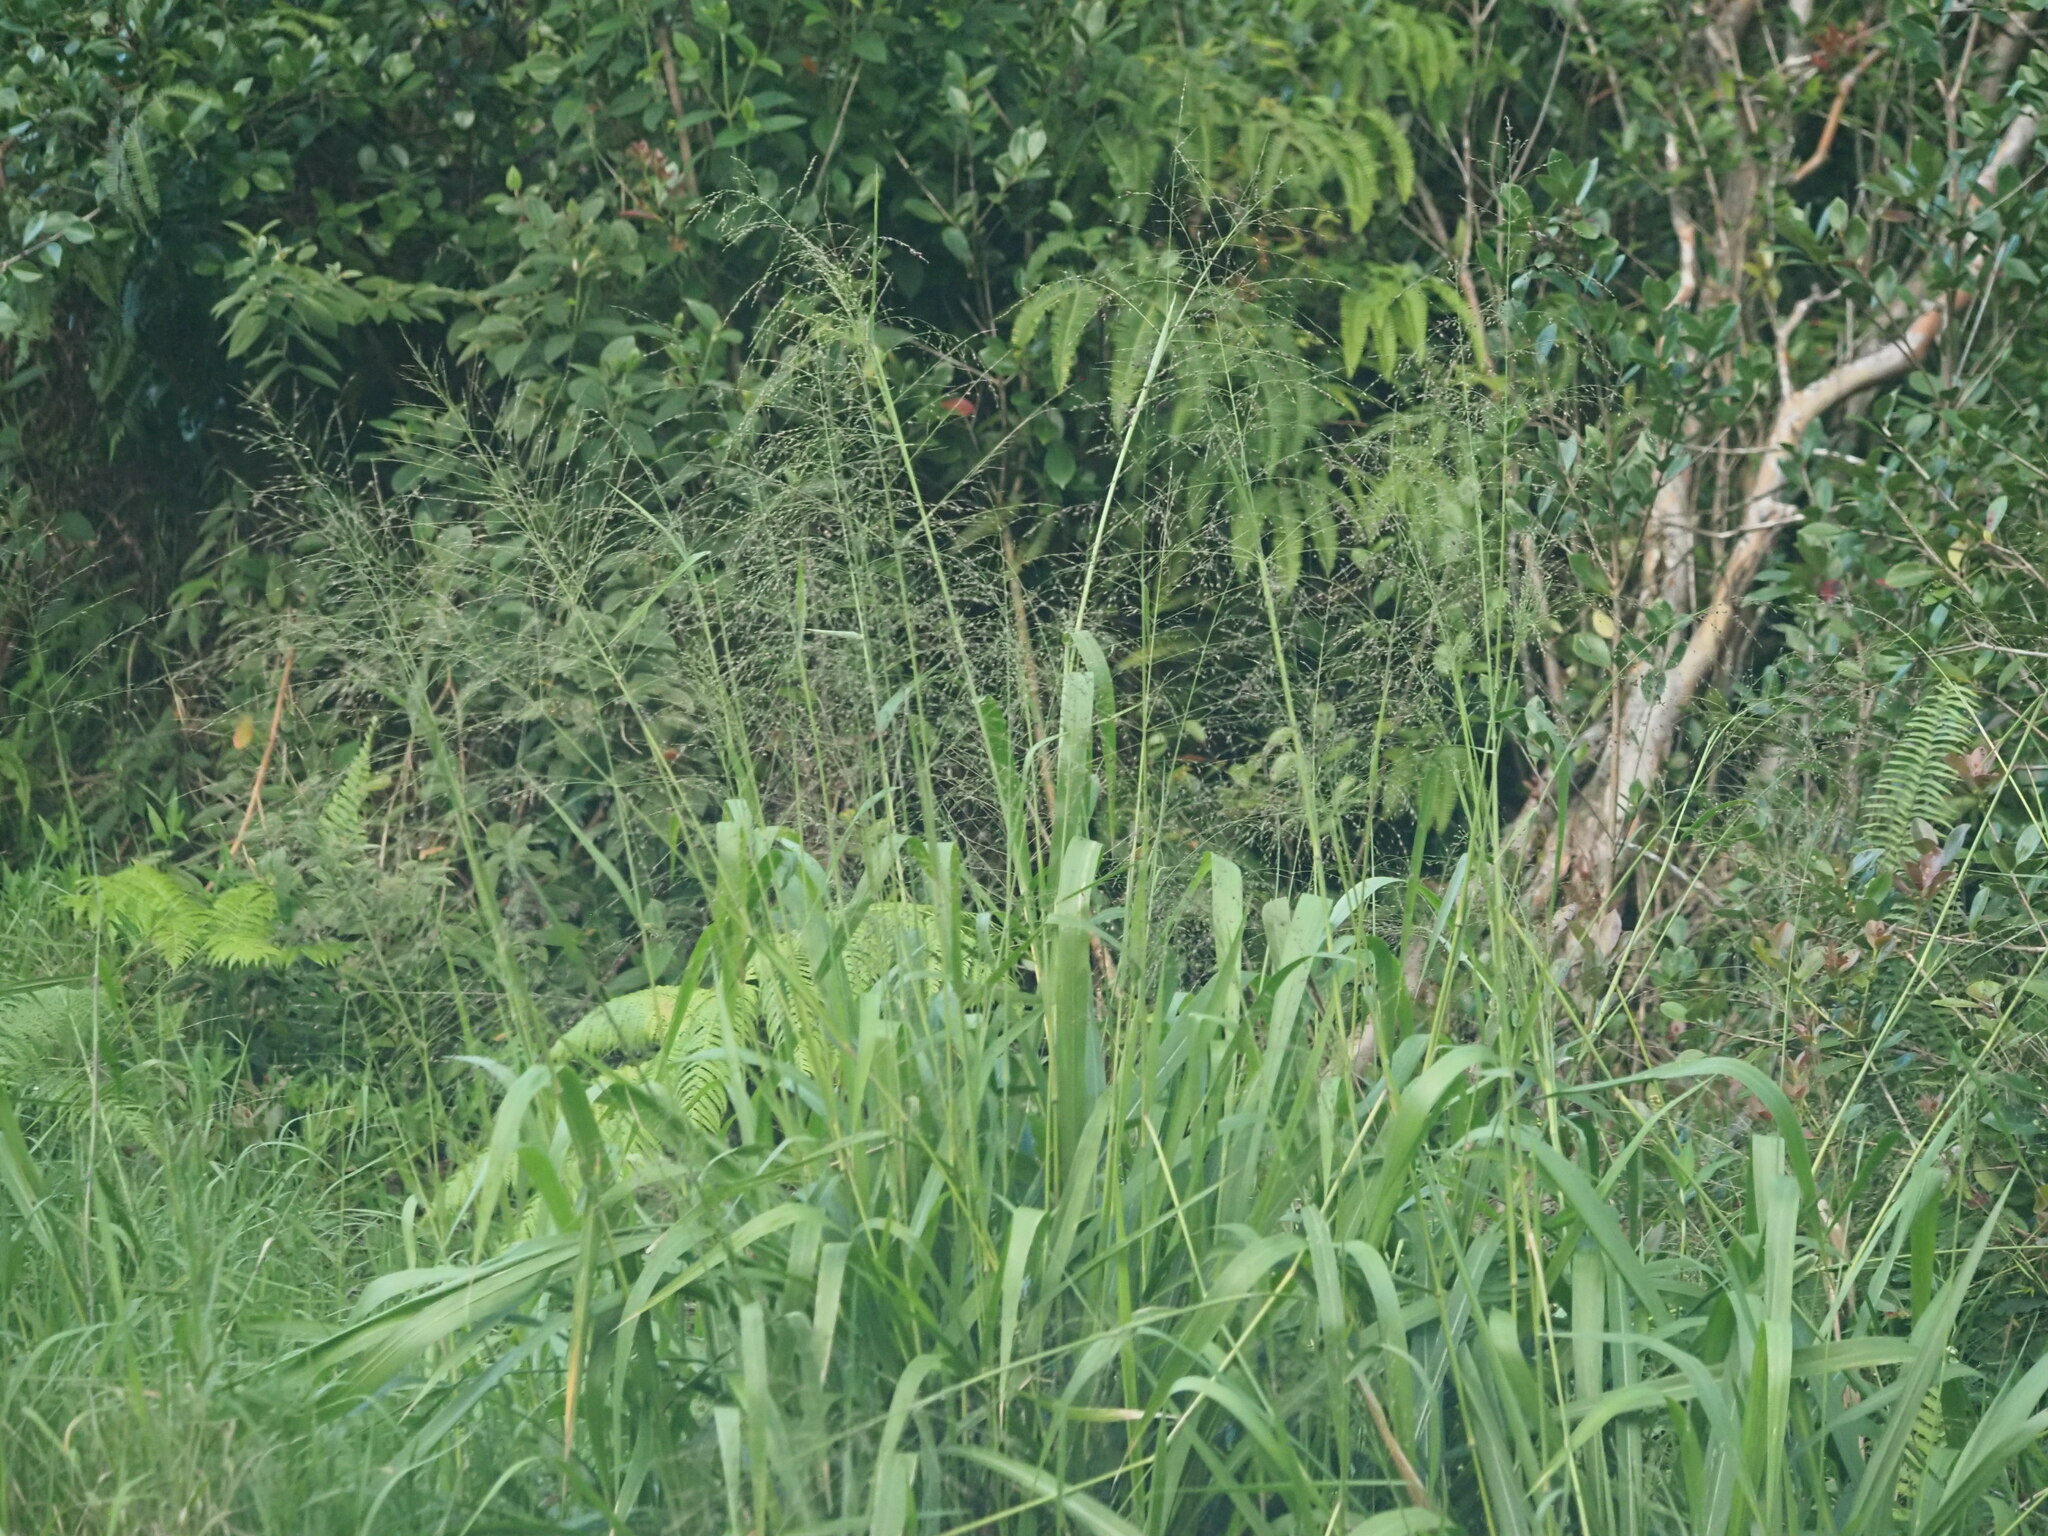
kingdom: Plantae
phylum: Tracheophyta
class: Liliopsida
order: Poales
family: Poaceae
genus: Megathyrsus
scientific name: Megathyrsus maximus
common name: Guineagrass
